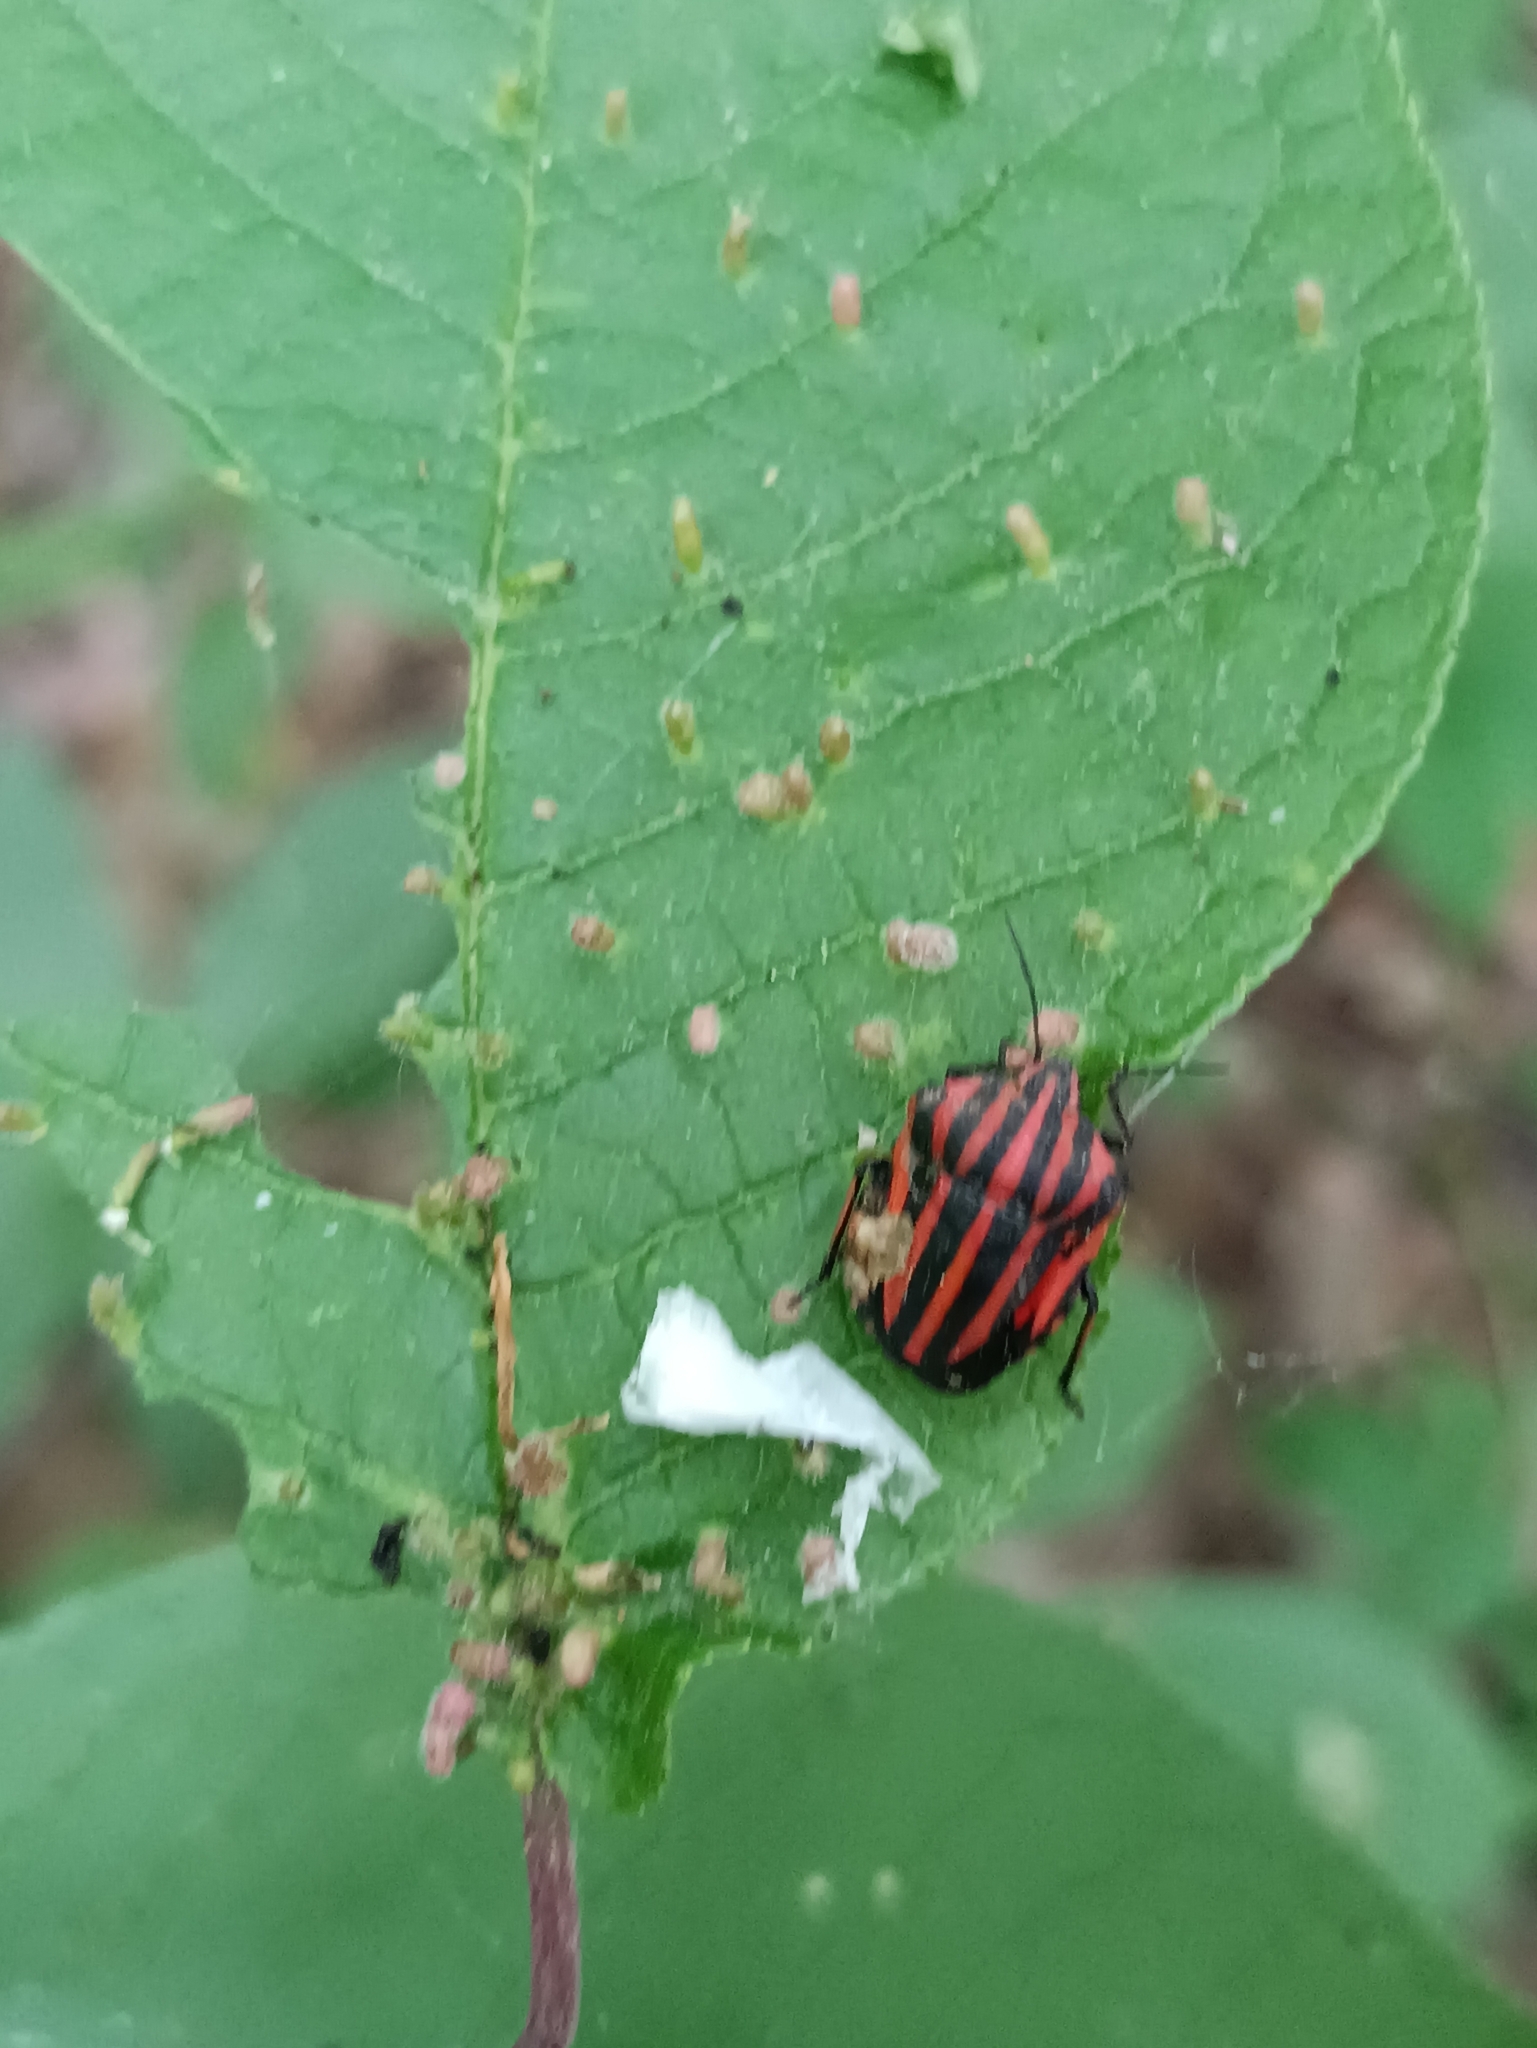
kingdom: Animalia
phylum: Arthropoda
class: Insecta
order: Hemiptera
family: Pentatomidae
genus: Graphosoma
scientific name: Graphosoma italicum
